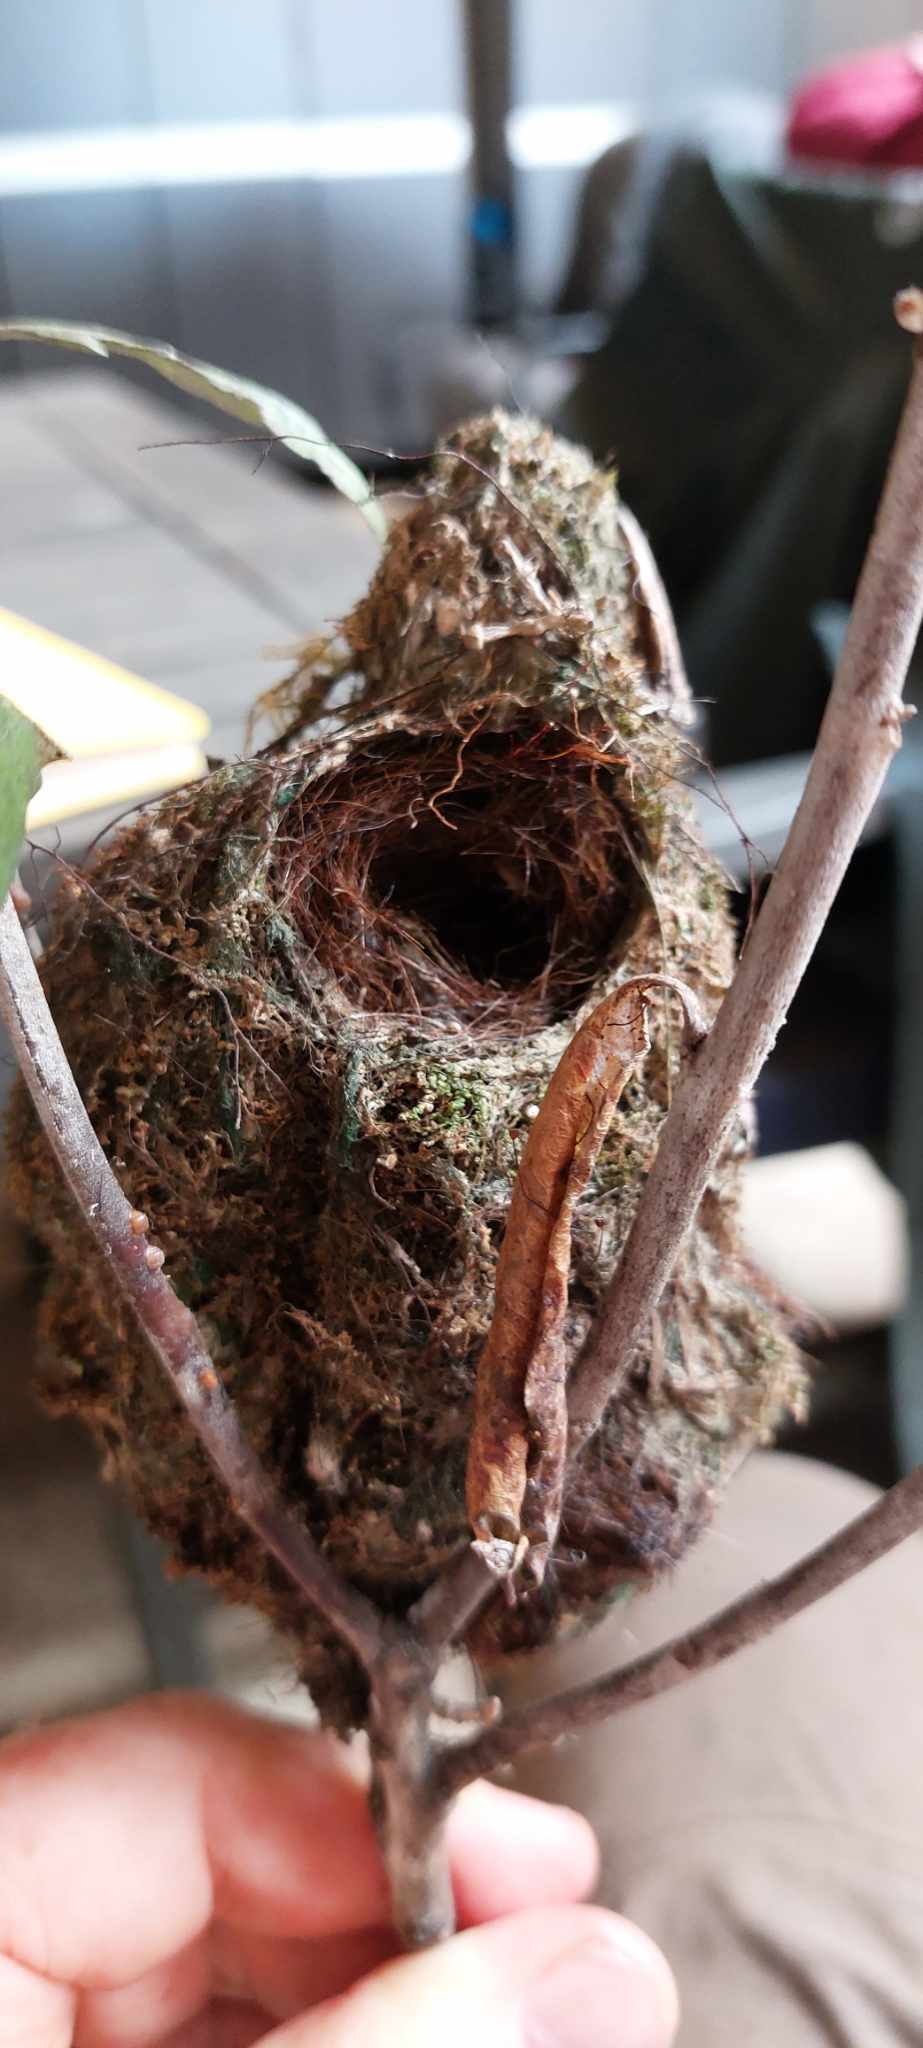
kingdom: Animalia
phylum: Chordata
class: Aves
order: Passeriformes
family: Acanthizidae
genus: Gerygone
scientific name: Gerygone albofrontata
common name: Chatham gerygone
